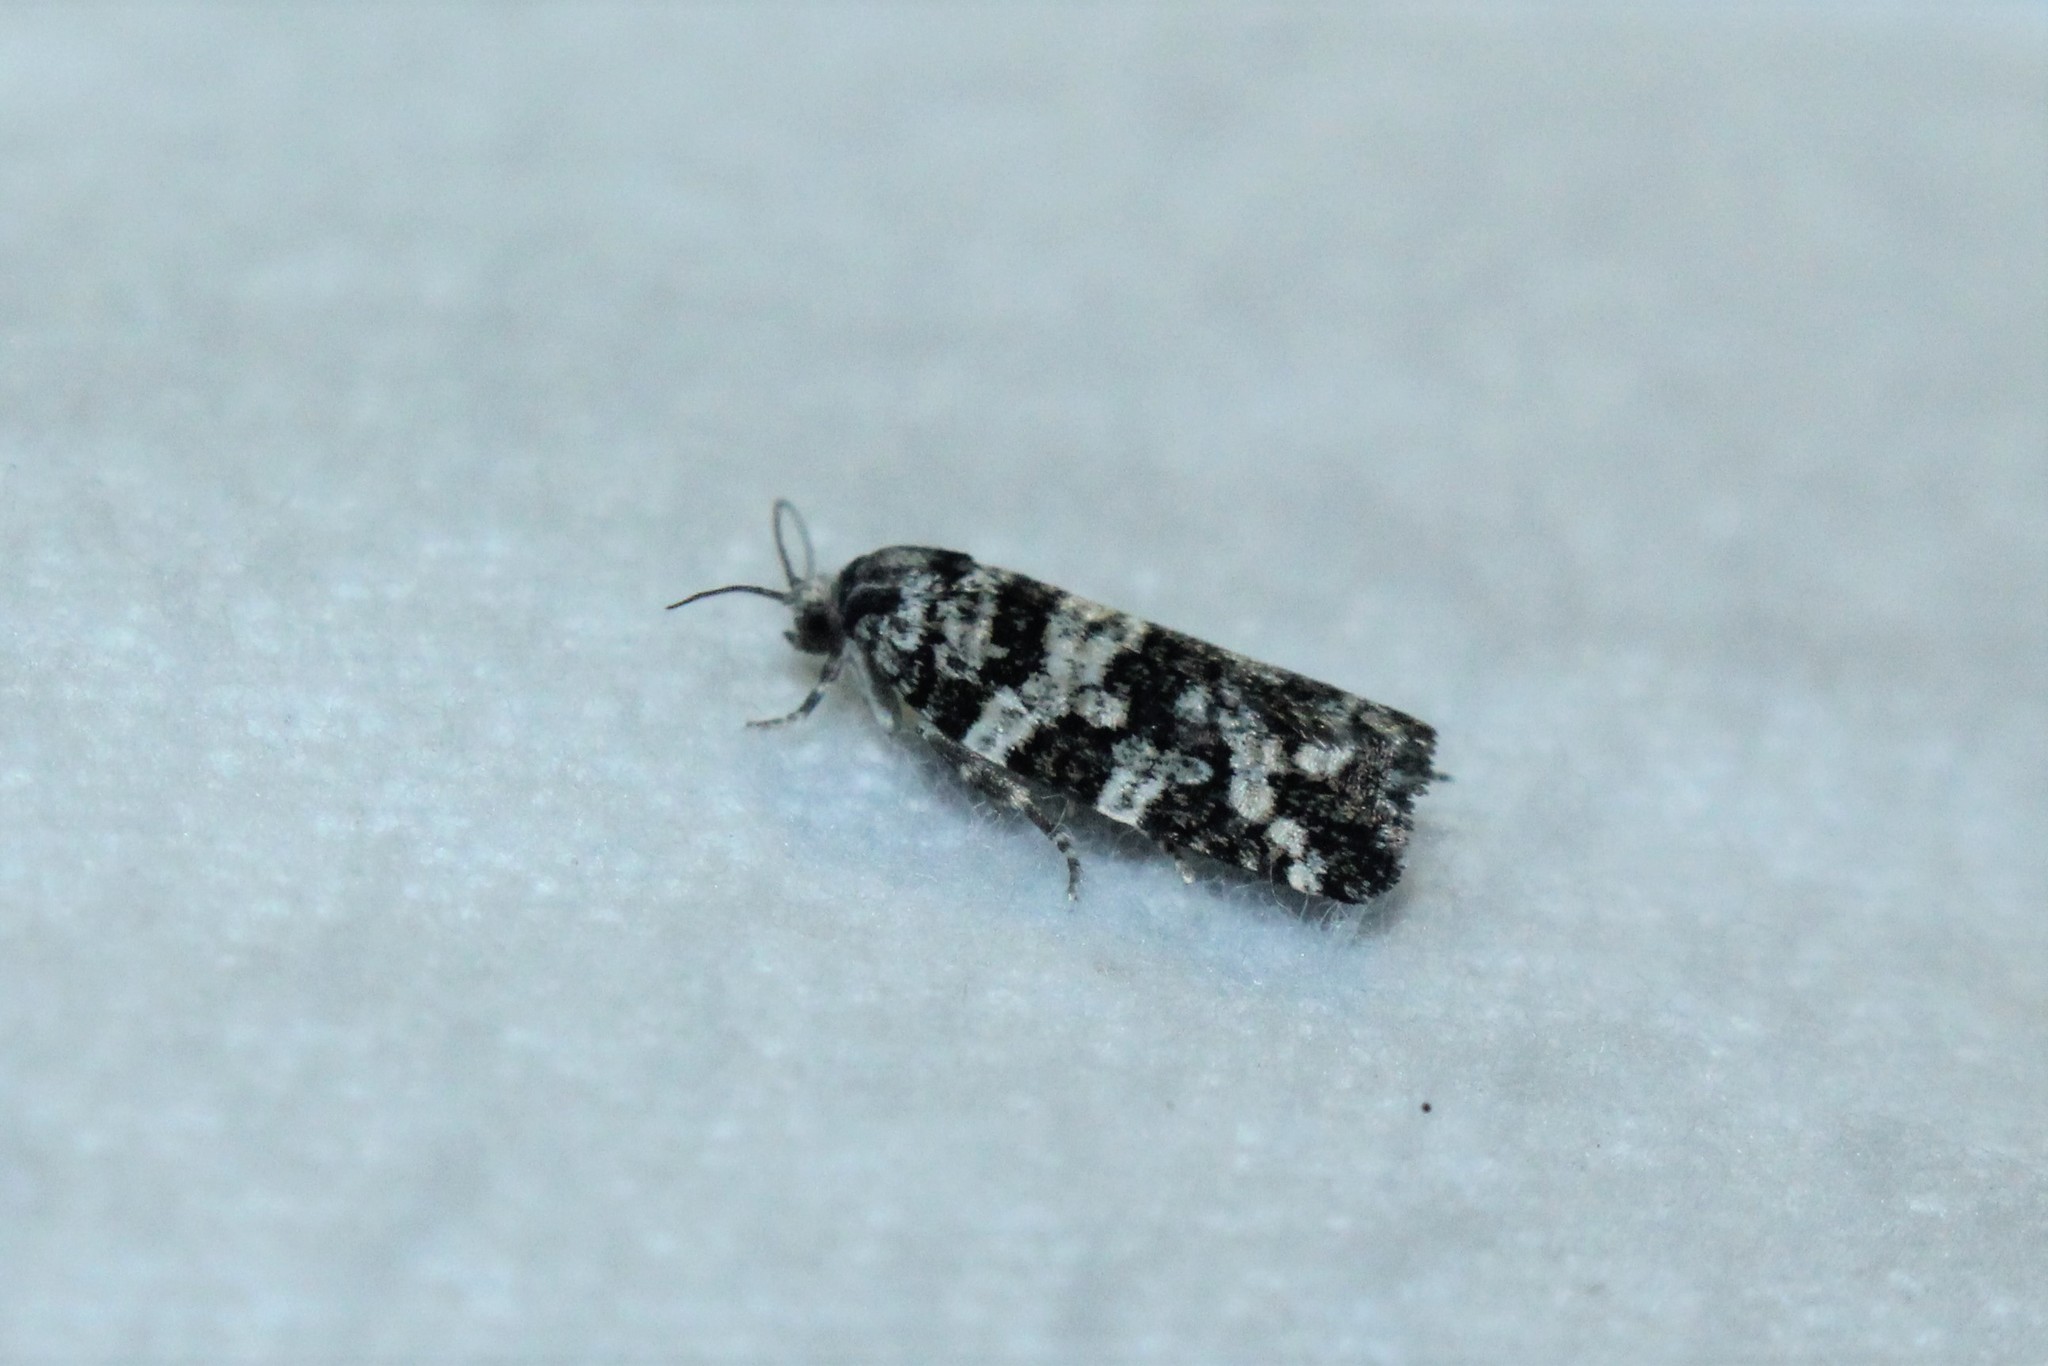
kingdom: Animalia
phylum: Arthropoda
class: Insecta
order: Lepidoptera
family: Tortricidae
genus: Archips
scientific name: Archips packardiana
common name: Spring spruce needle moth
